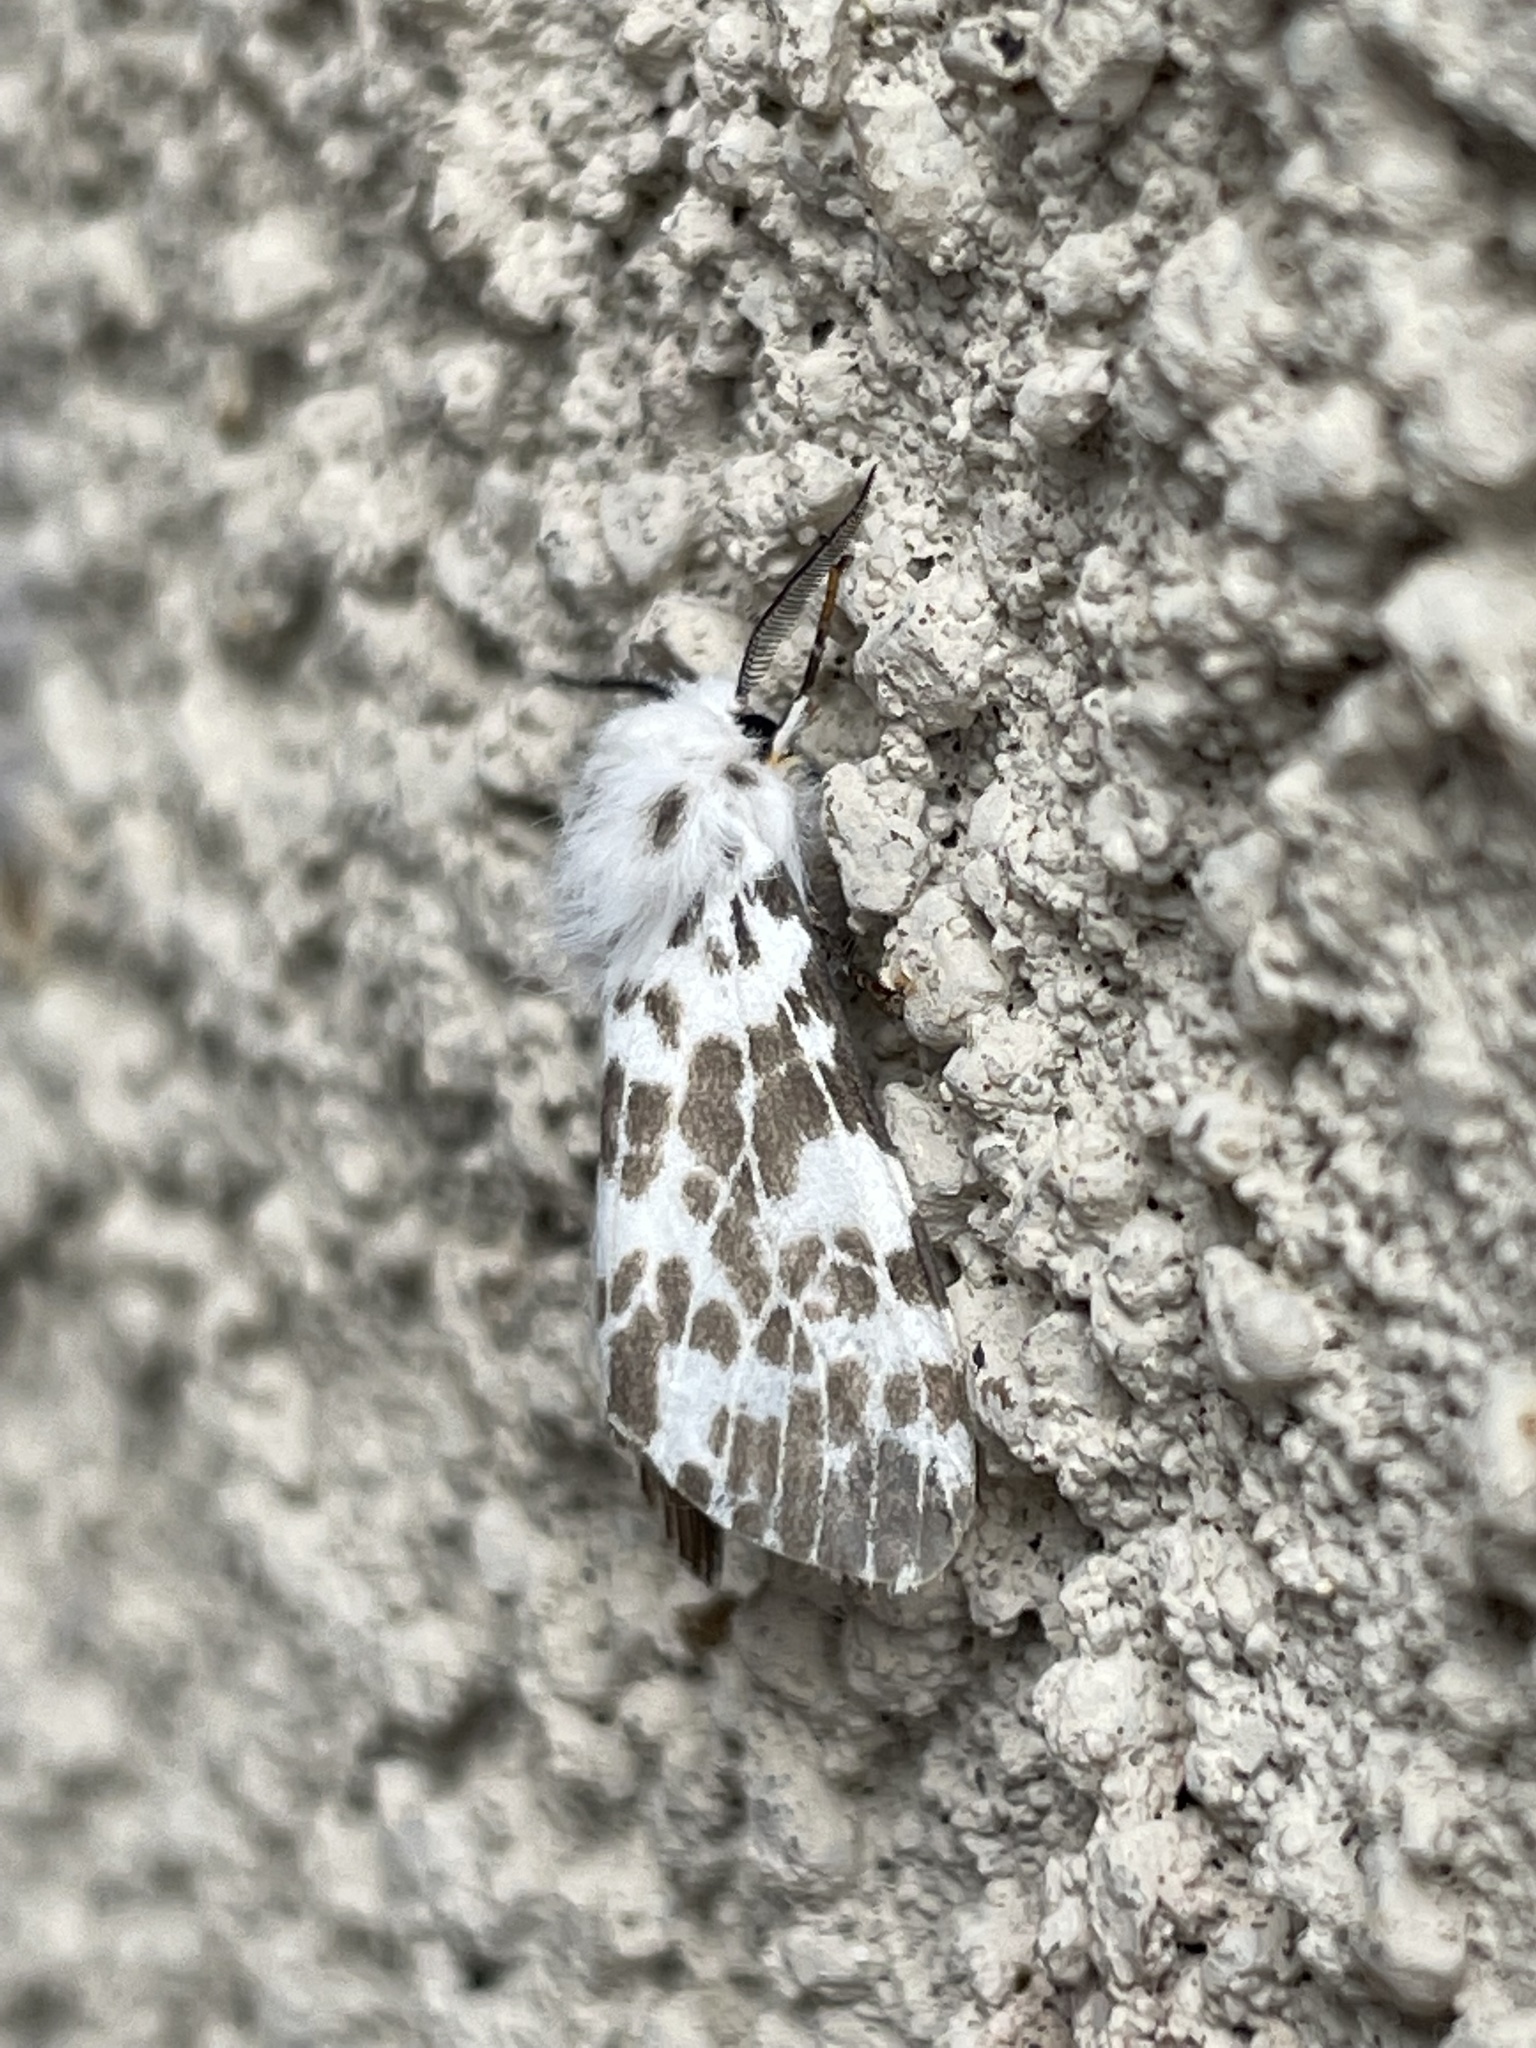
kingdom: Animalia
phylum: Arthropoda
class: Insecta
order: Lepidoptera
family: Erebidae
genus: Hyphantria
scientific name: Hyphantria cunea
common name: American white moth
